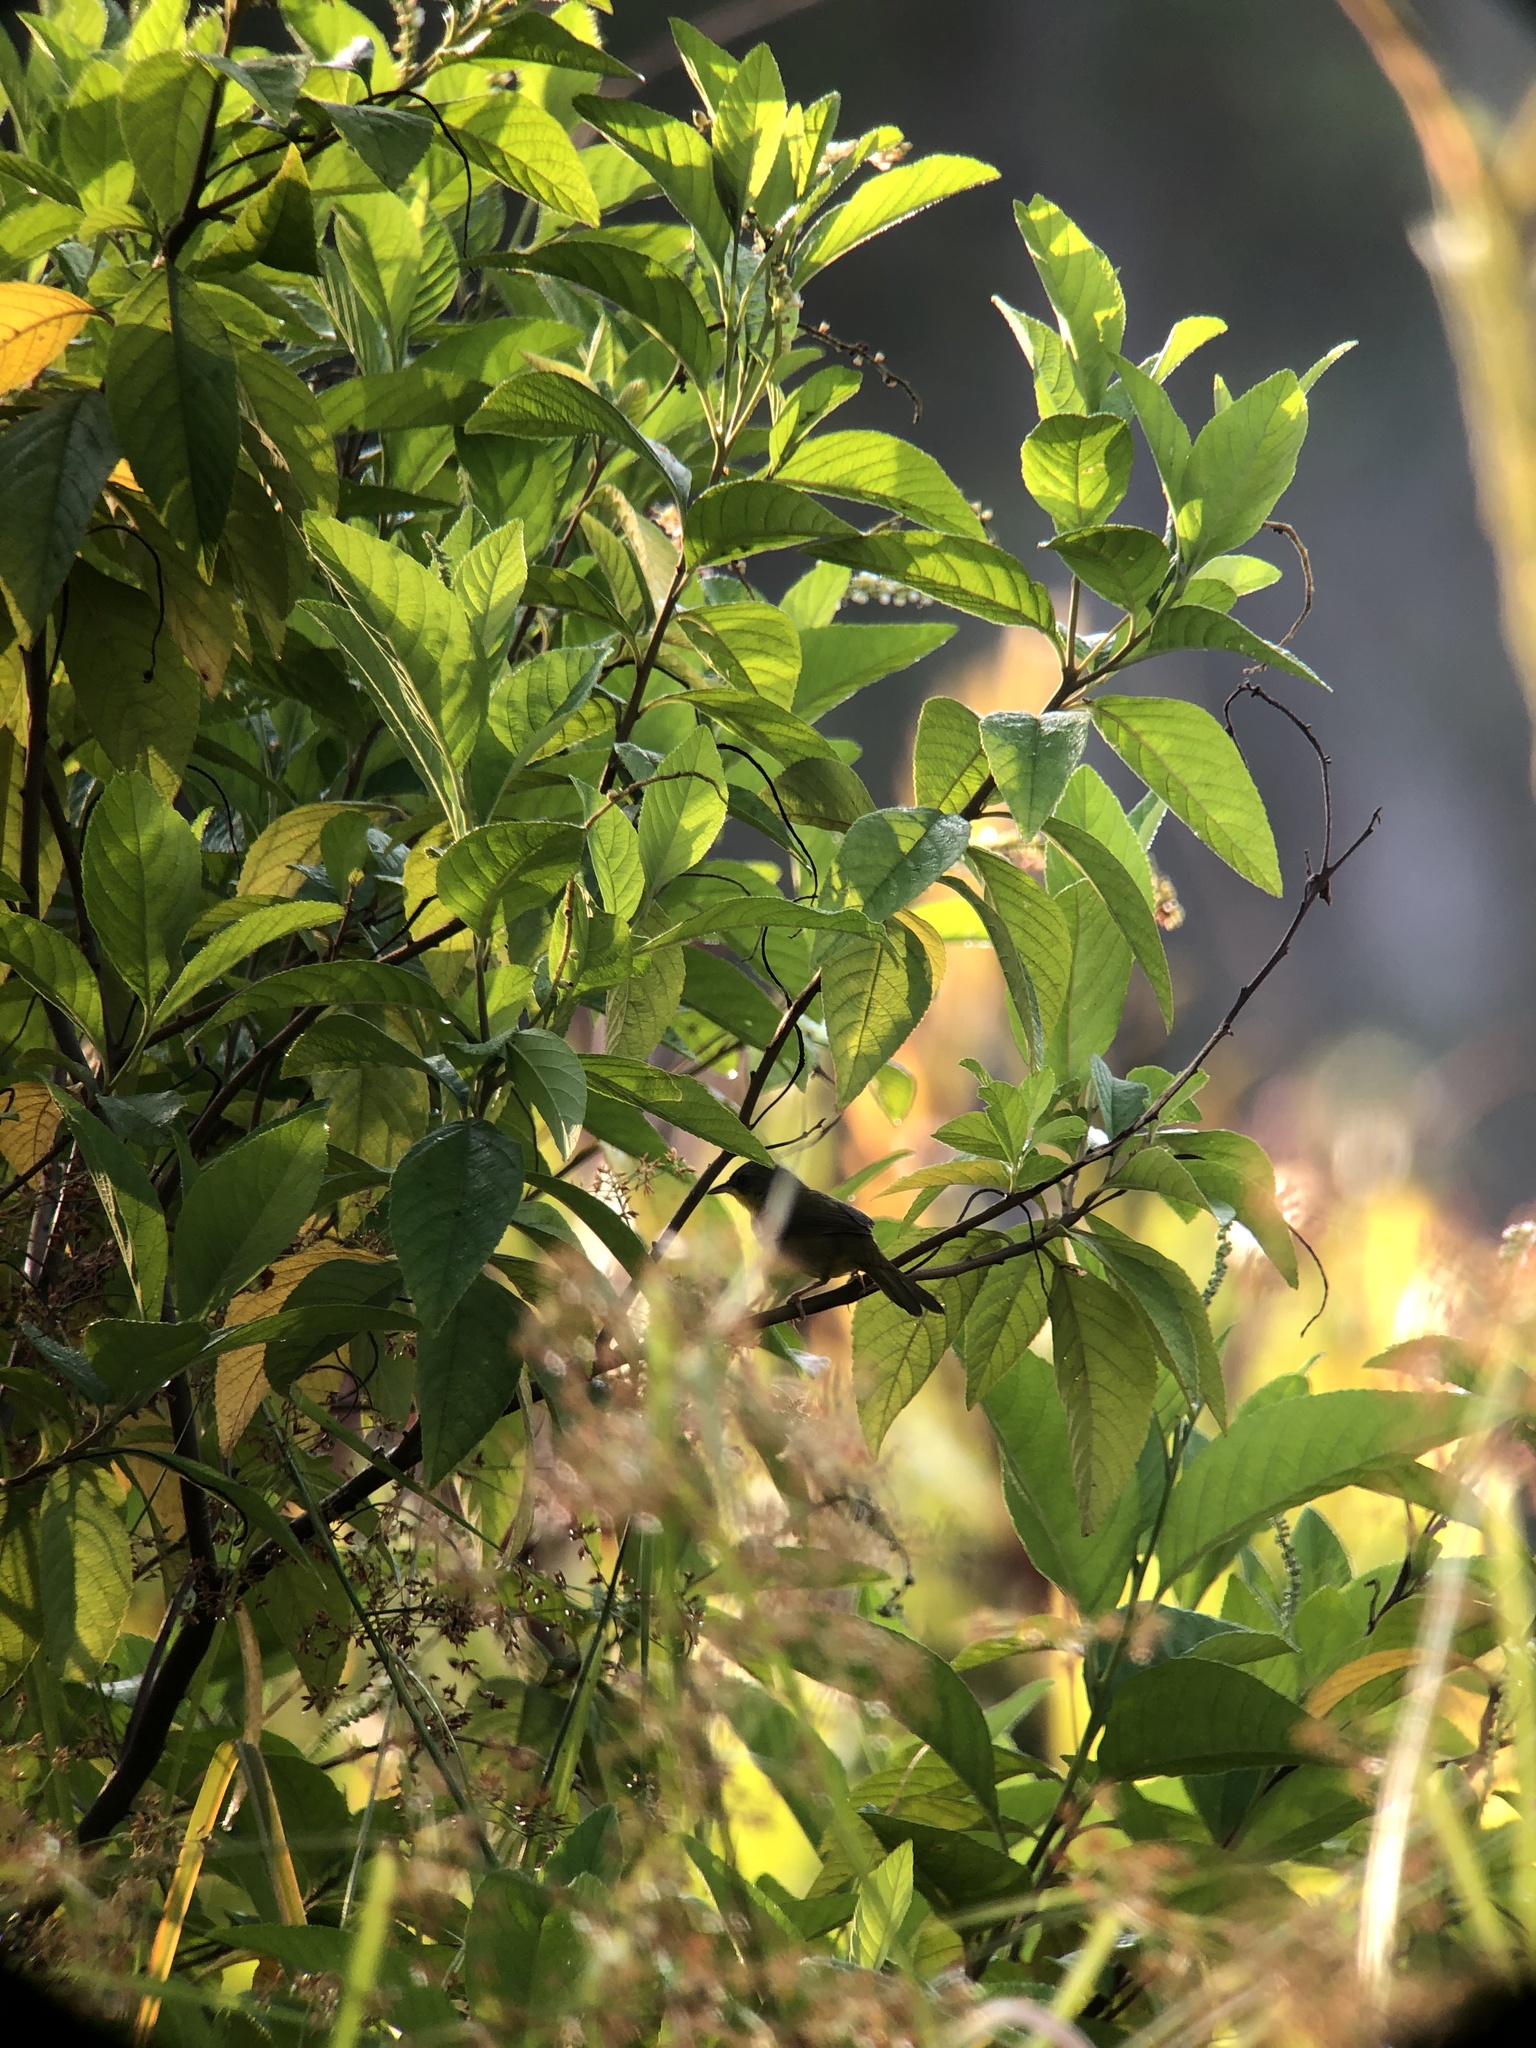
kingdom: Animalia
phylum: Chordata
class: Aves
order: Passeriformes
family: Parulidae
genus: Geothlypis
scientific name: Geothlypis poliocephala
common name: Gray-crowned yellowthroat
